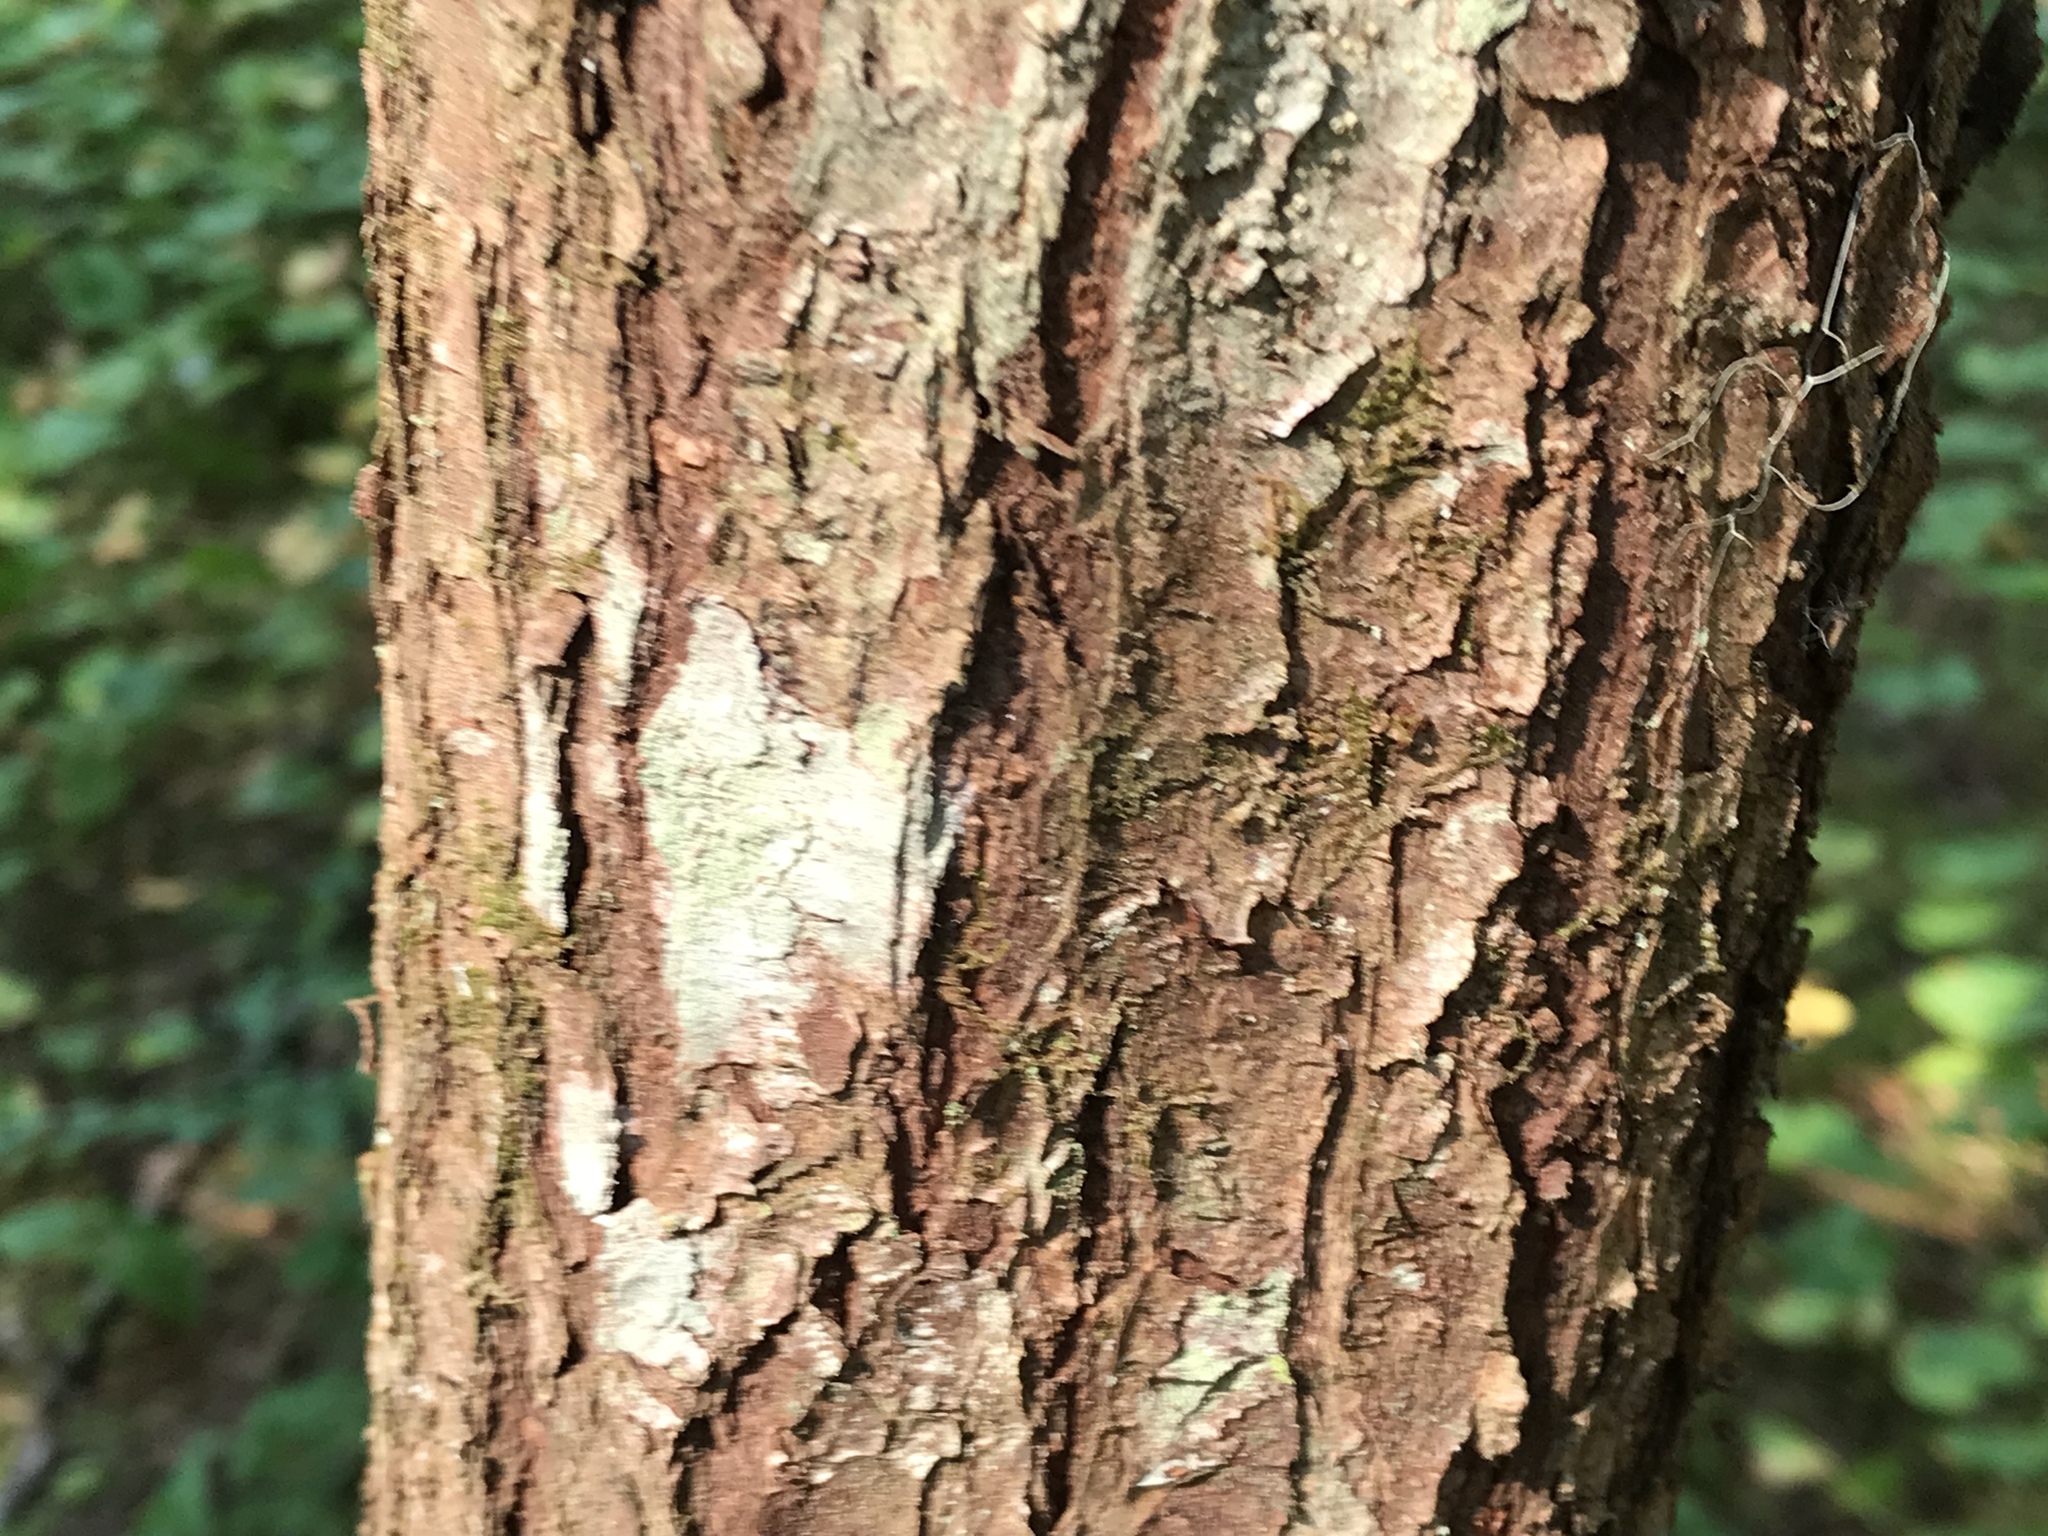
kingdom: Plantae
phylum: Tracheophyta
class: Pinopsida
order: Pinales
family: Pinaceae
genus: Tsuga
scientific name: Tsuga heterophylla
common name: Western hemlock
